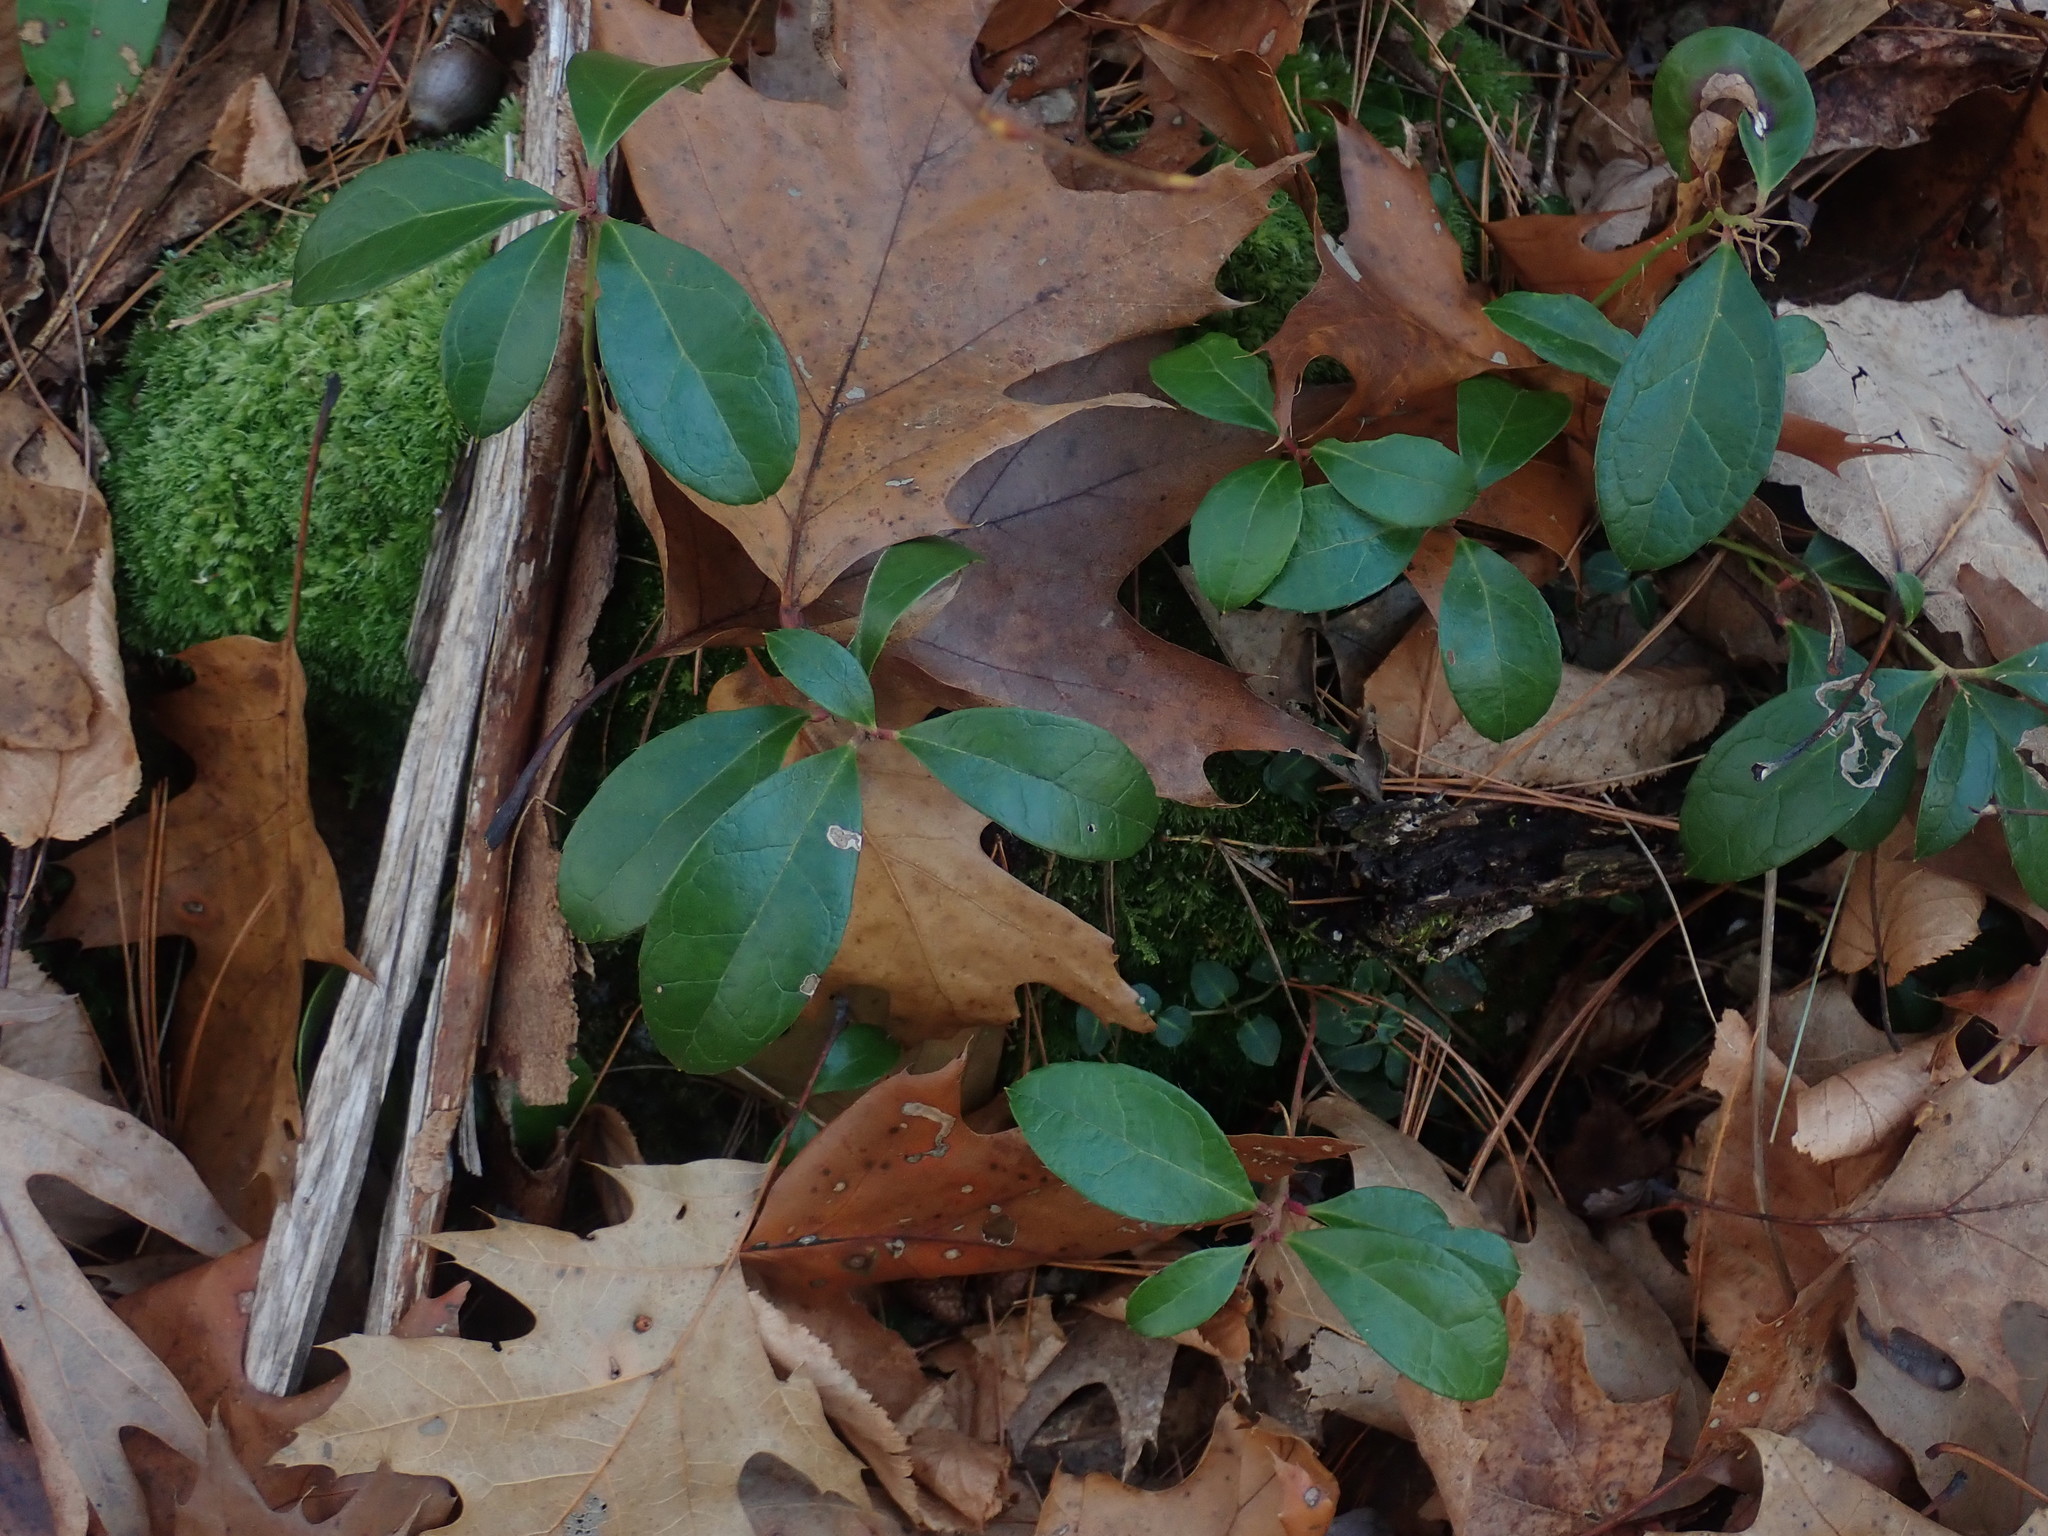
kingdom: Plantae
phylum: Tracheophyta
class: Magnoliopsida
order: Ericales
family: Ericaceae
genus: Gaultheria
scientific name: Gaultheria procumbens
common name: Checkerberry
